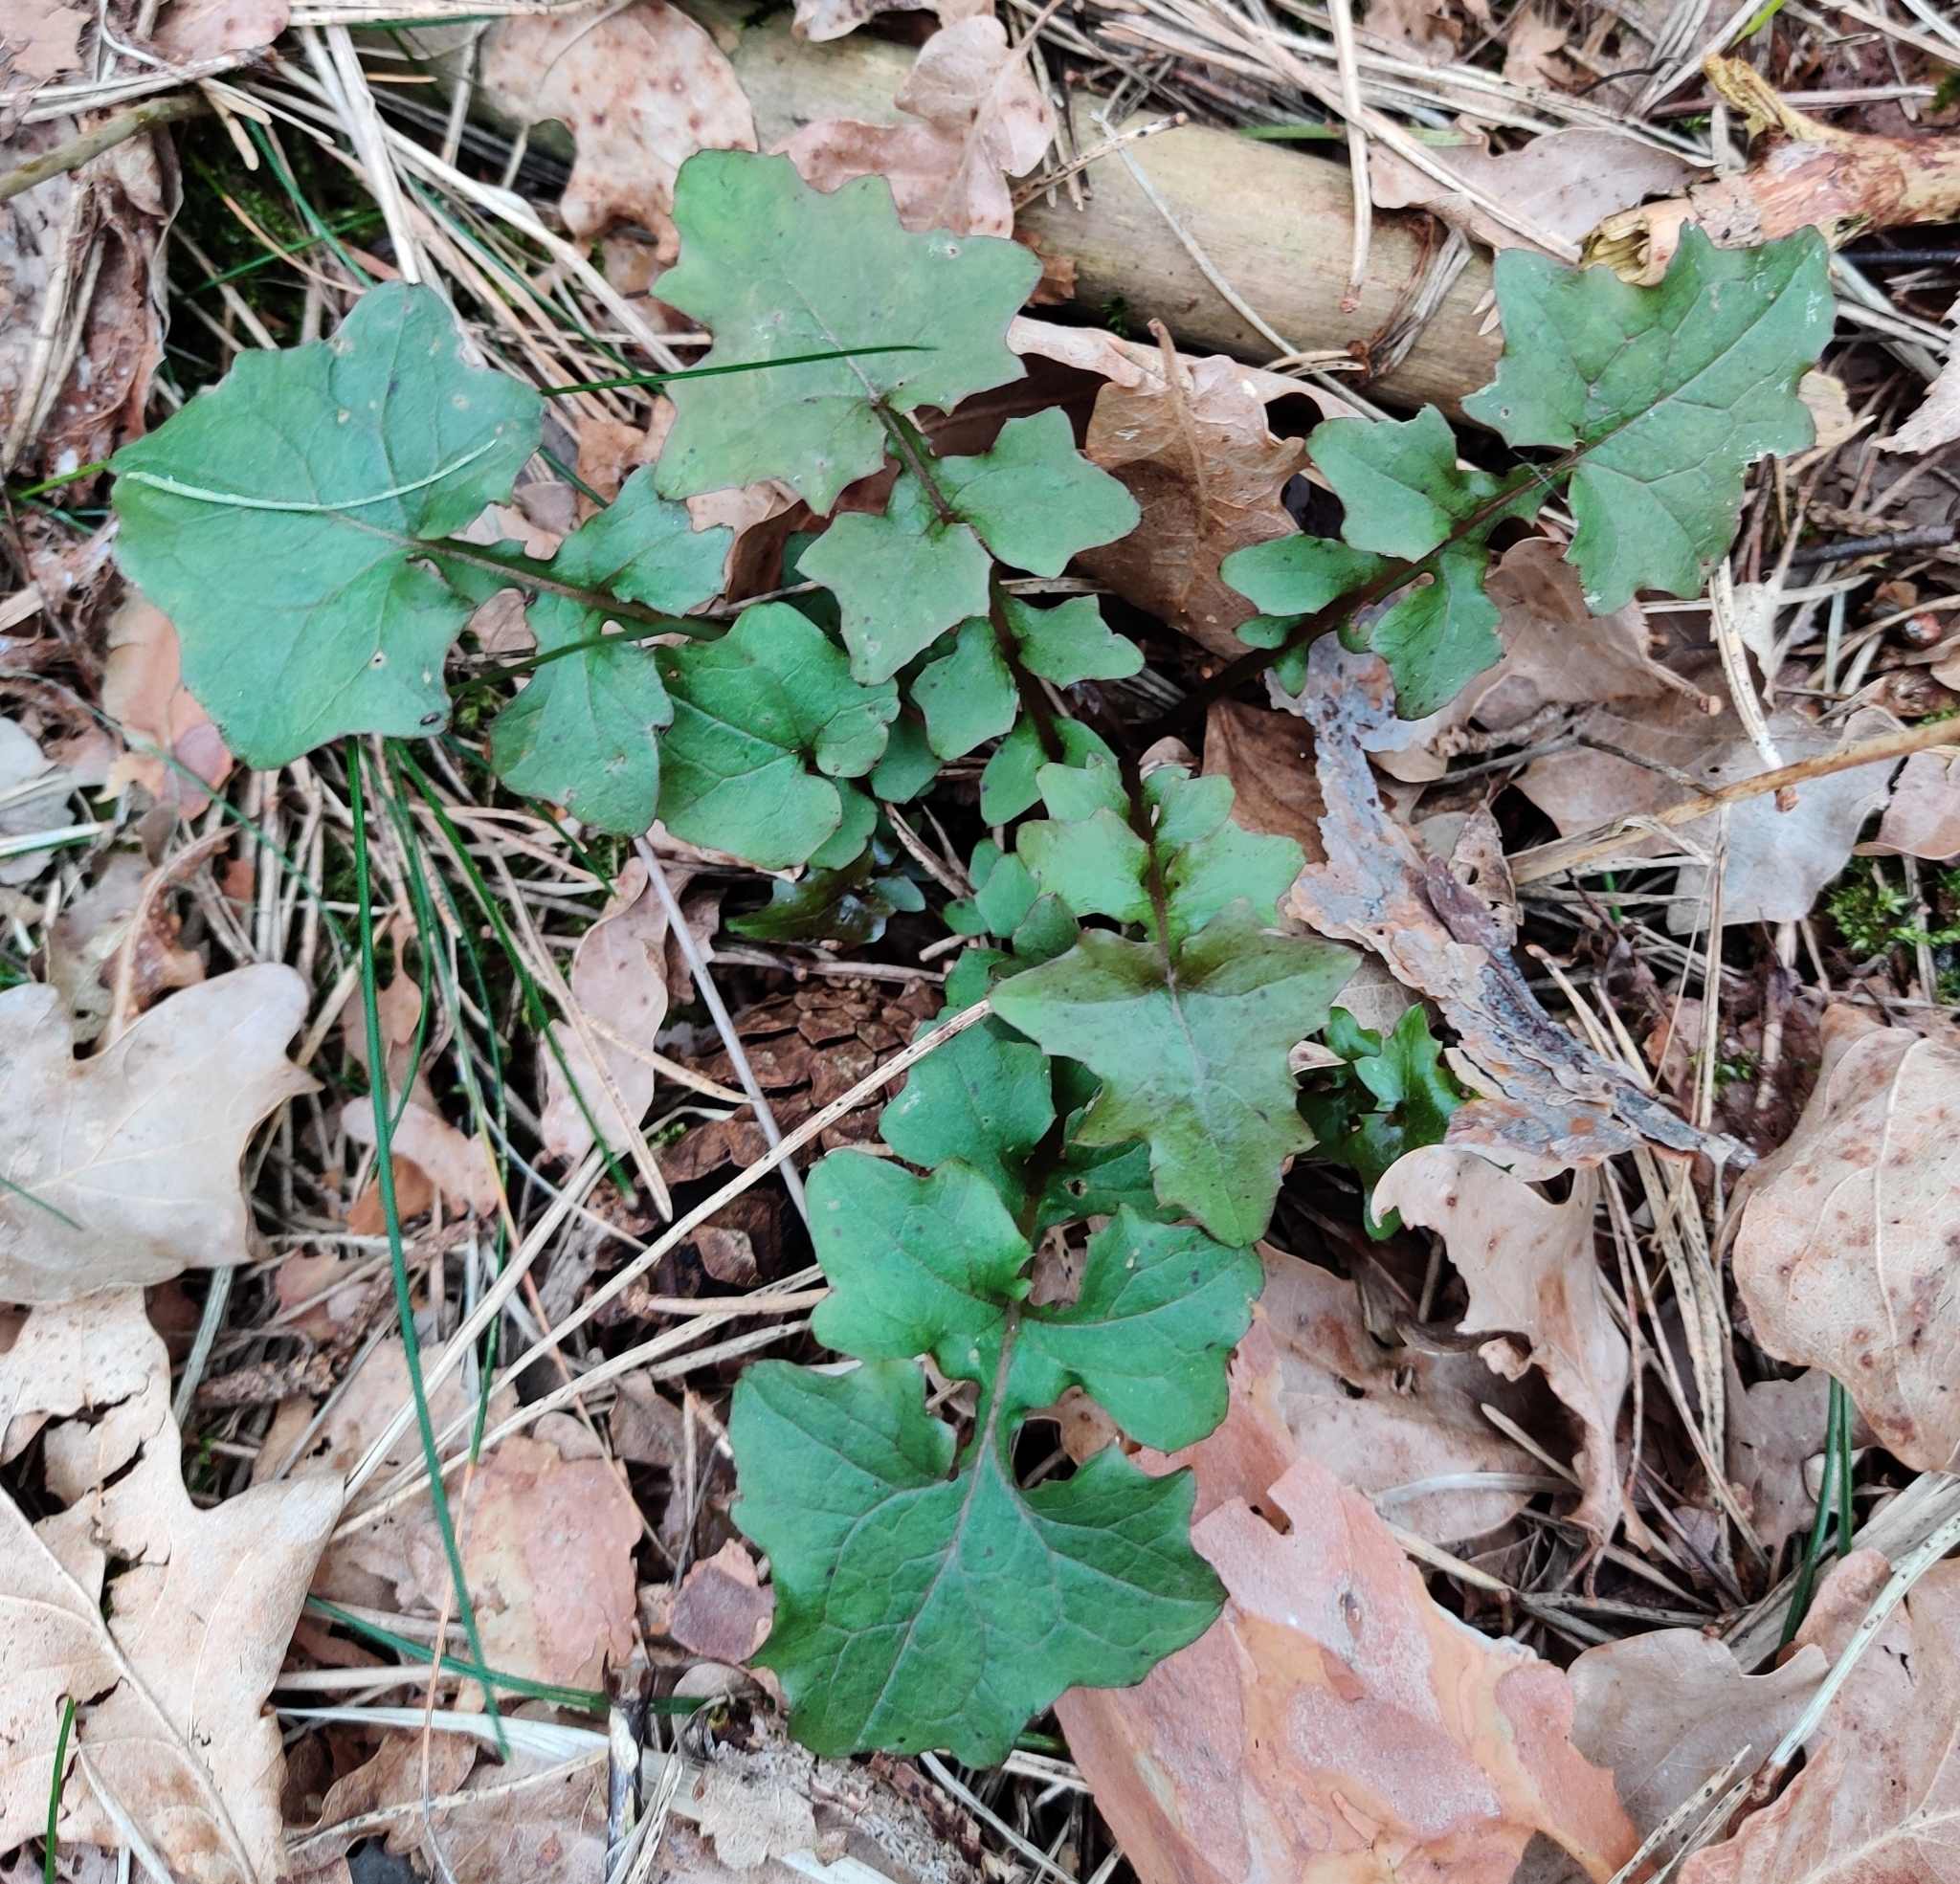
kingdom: Plantae
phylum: Tracheophyta
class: Magnoliopsida
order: Asterales
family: Asteraceae
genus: Mycelis
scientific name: Mycelis muralis
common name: Wall lettuce
